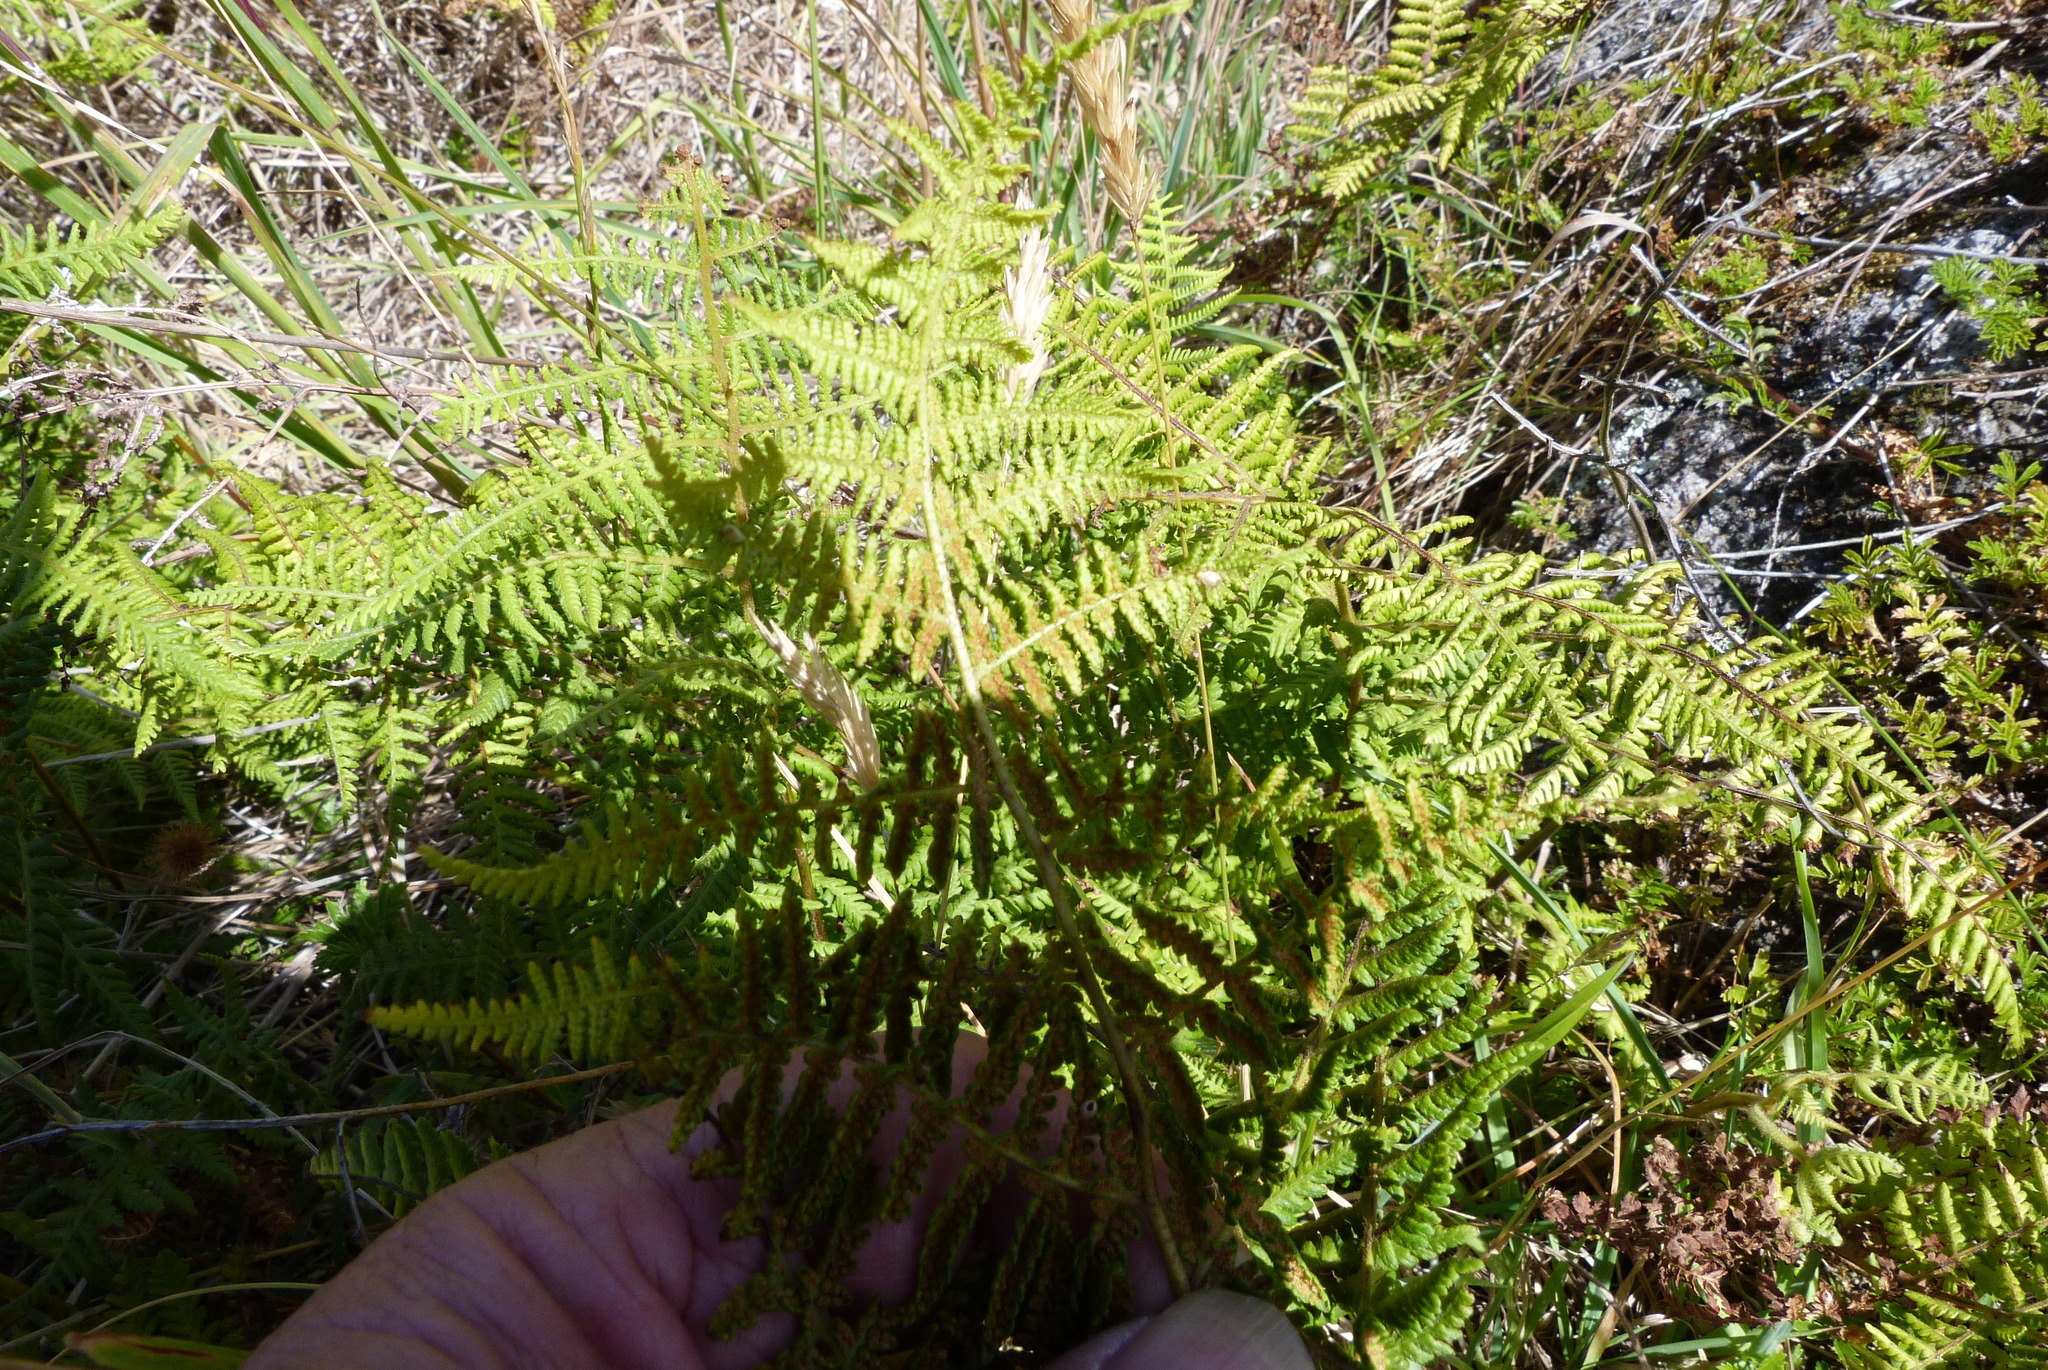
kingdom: Plantae
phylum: Tracheophyta
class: Polypodiopsida
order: Polypodiales
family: Dennstaedtiaceae
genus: Hypolepis
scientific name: Hypolepis ambigua
